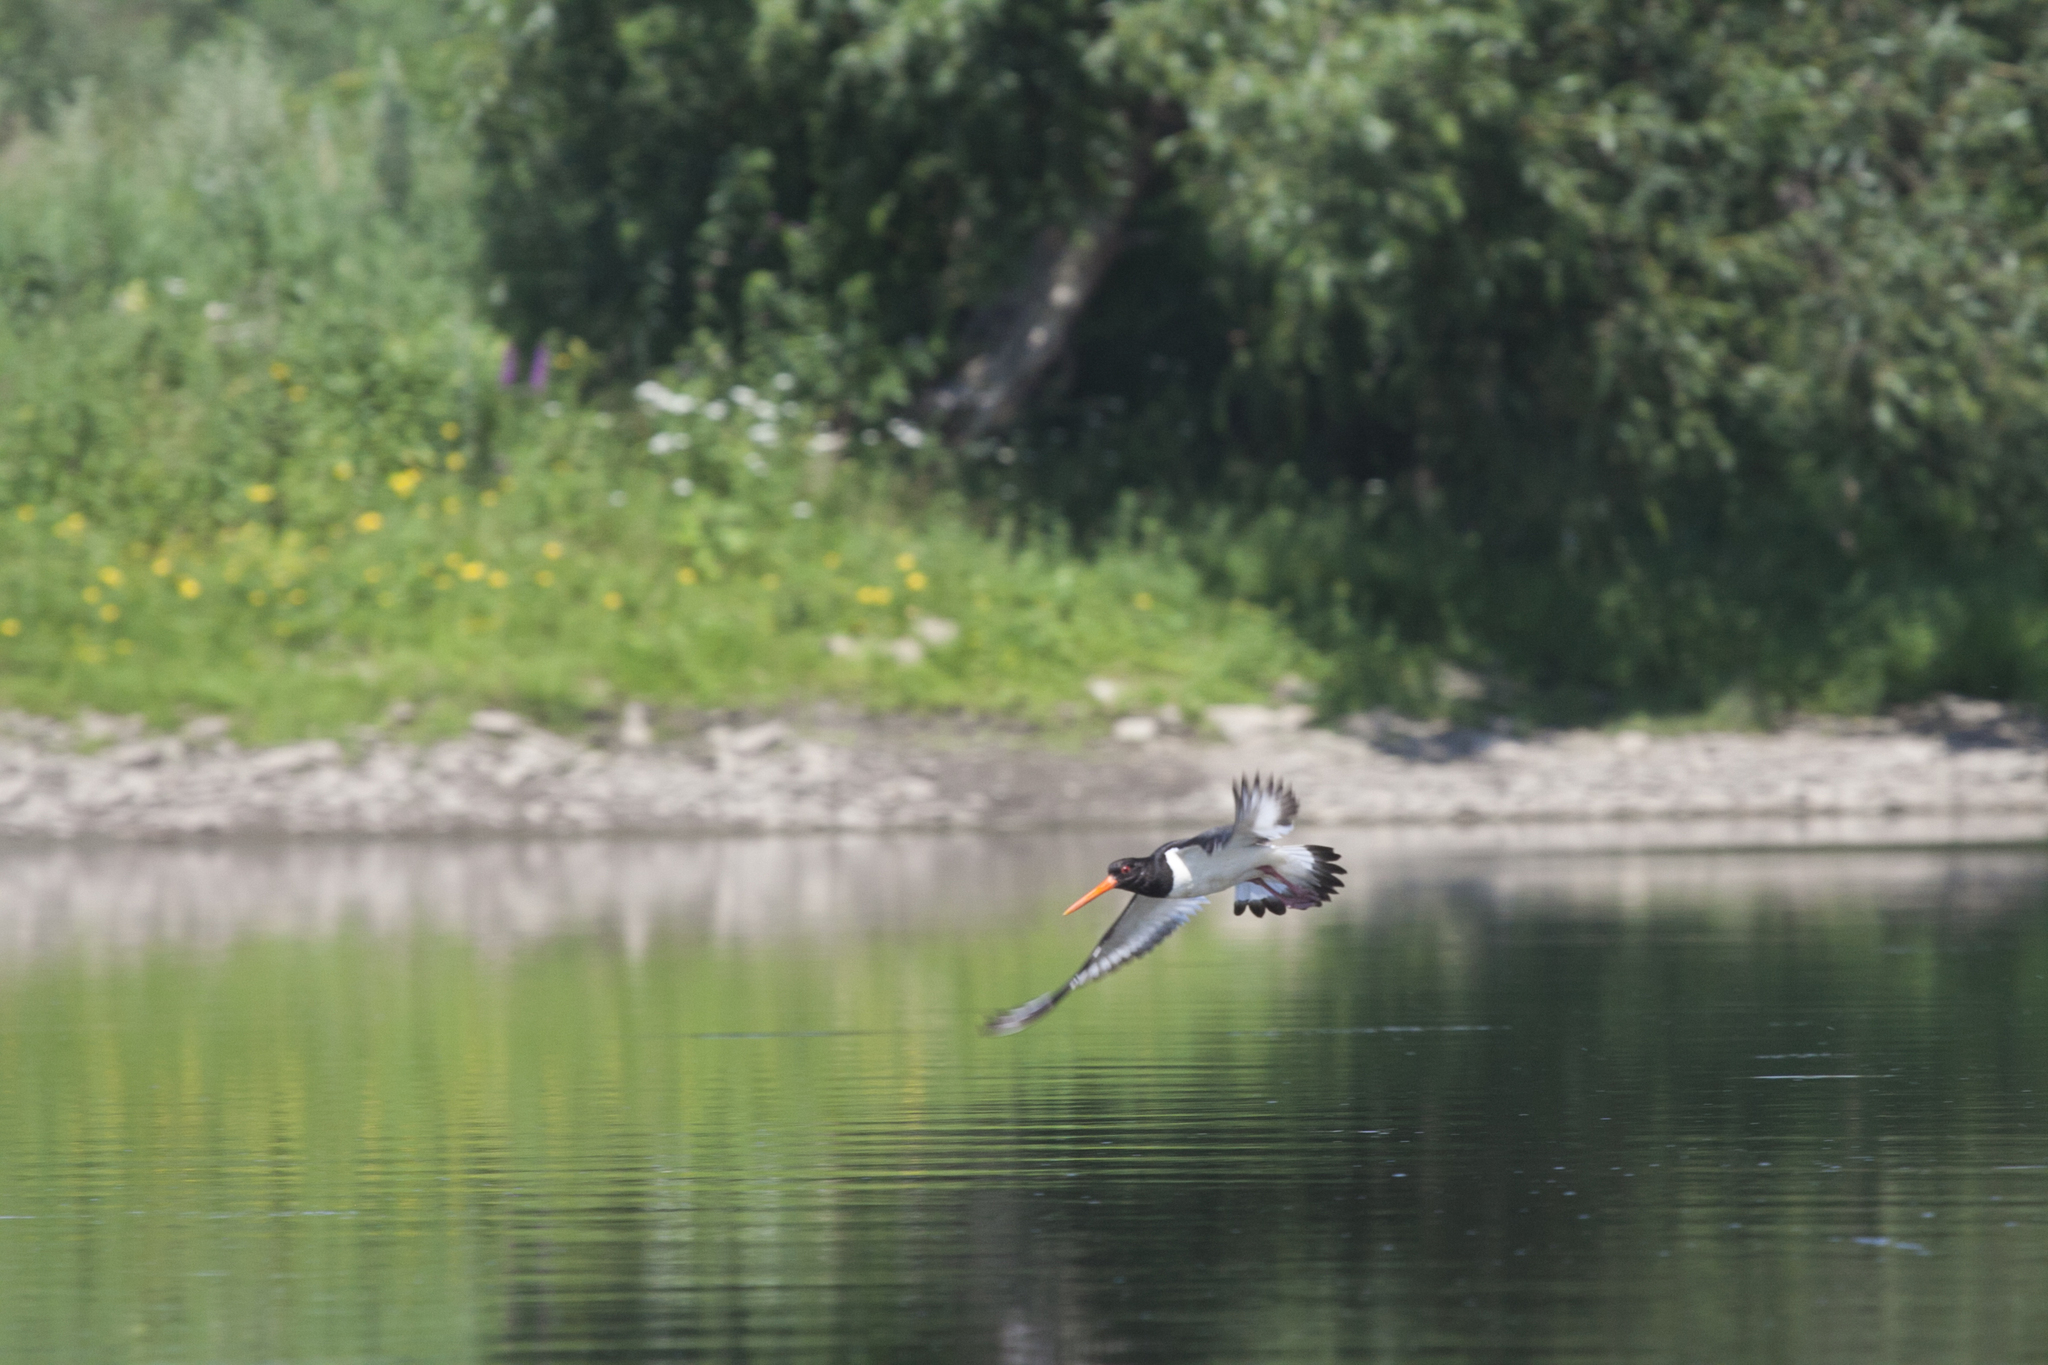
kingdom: Animalia
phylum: Chordata
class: Aves
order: Charadriiformes
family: Haematopodidae
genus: Haematopus
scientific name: Haematopus ostralegus
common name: Eurasian oystercatcher
